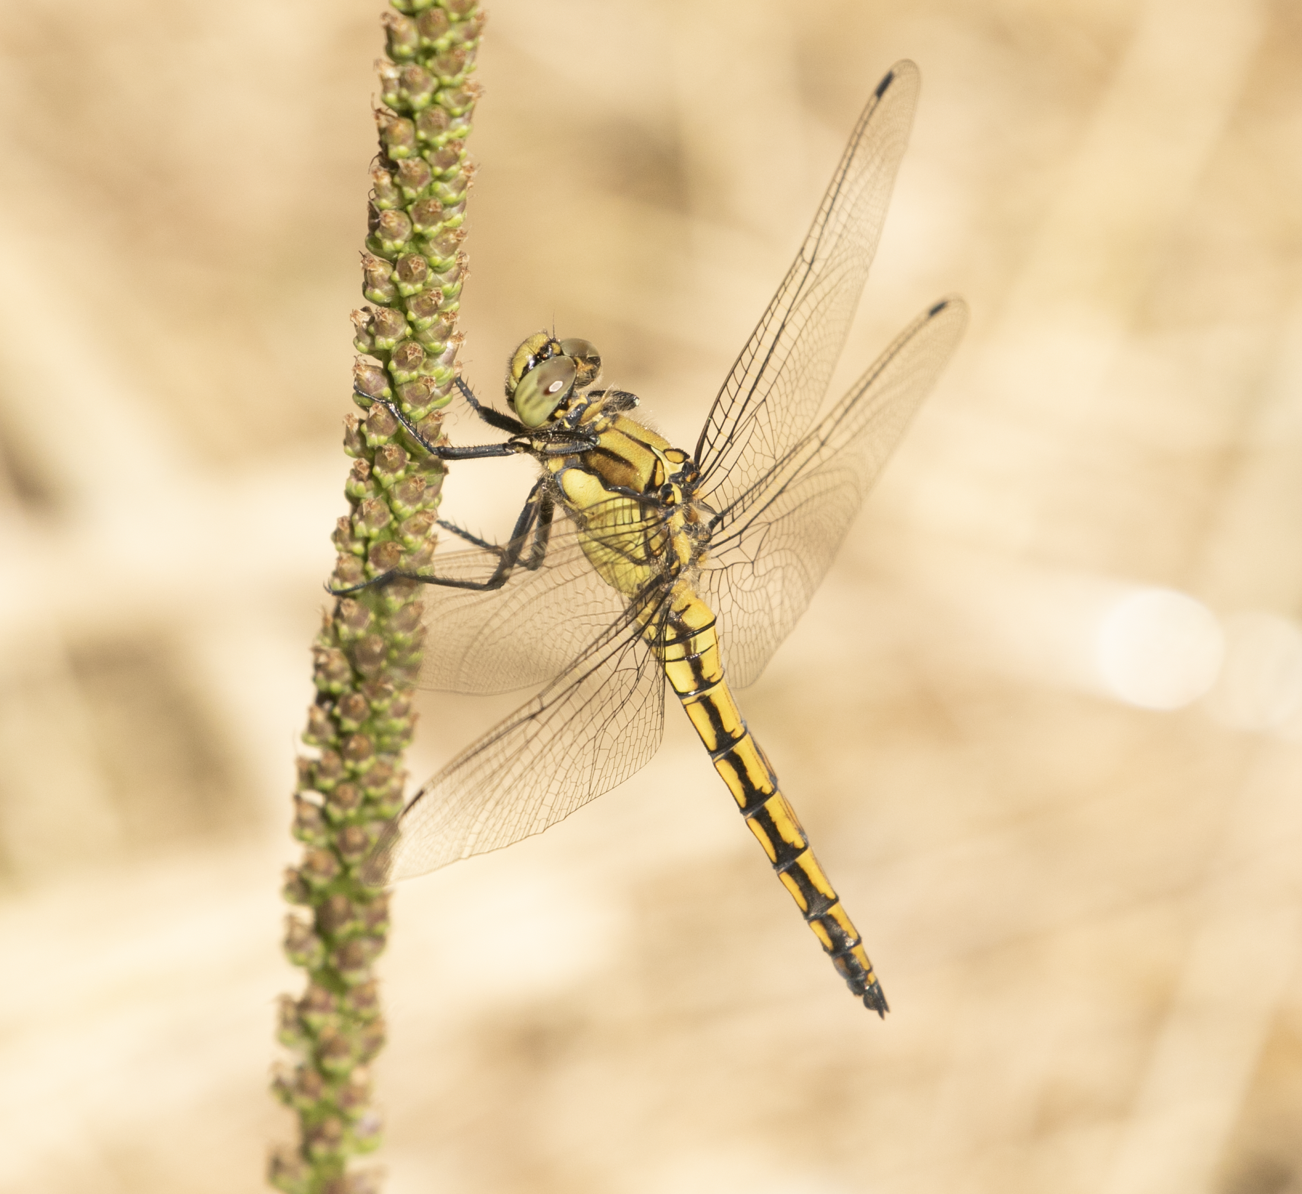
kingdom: Animalia
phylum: Arthropoda
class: Insecta
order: Odonata
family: Libellulidae
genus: Orthetrum
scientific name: Orthetrum cancellatum
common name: Black-tailed skimmer
